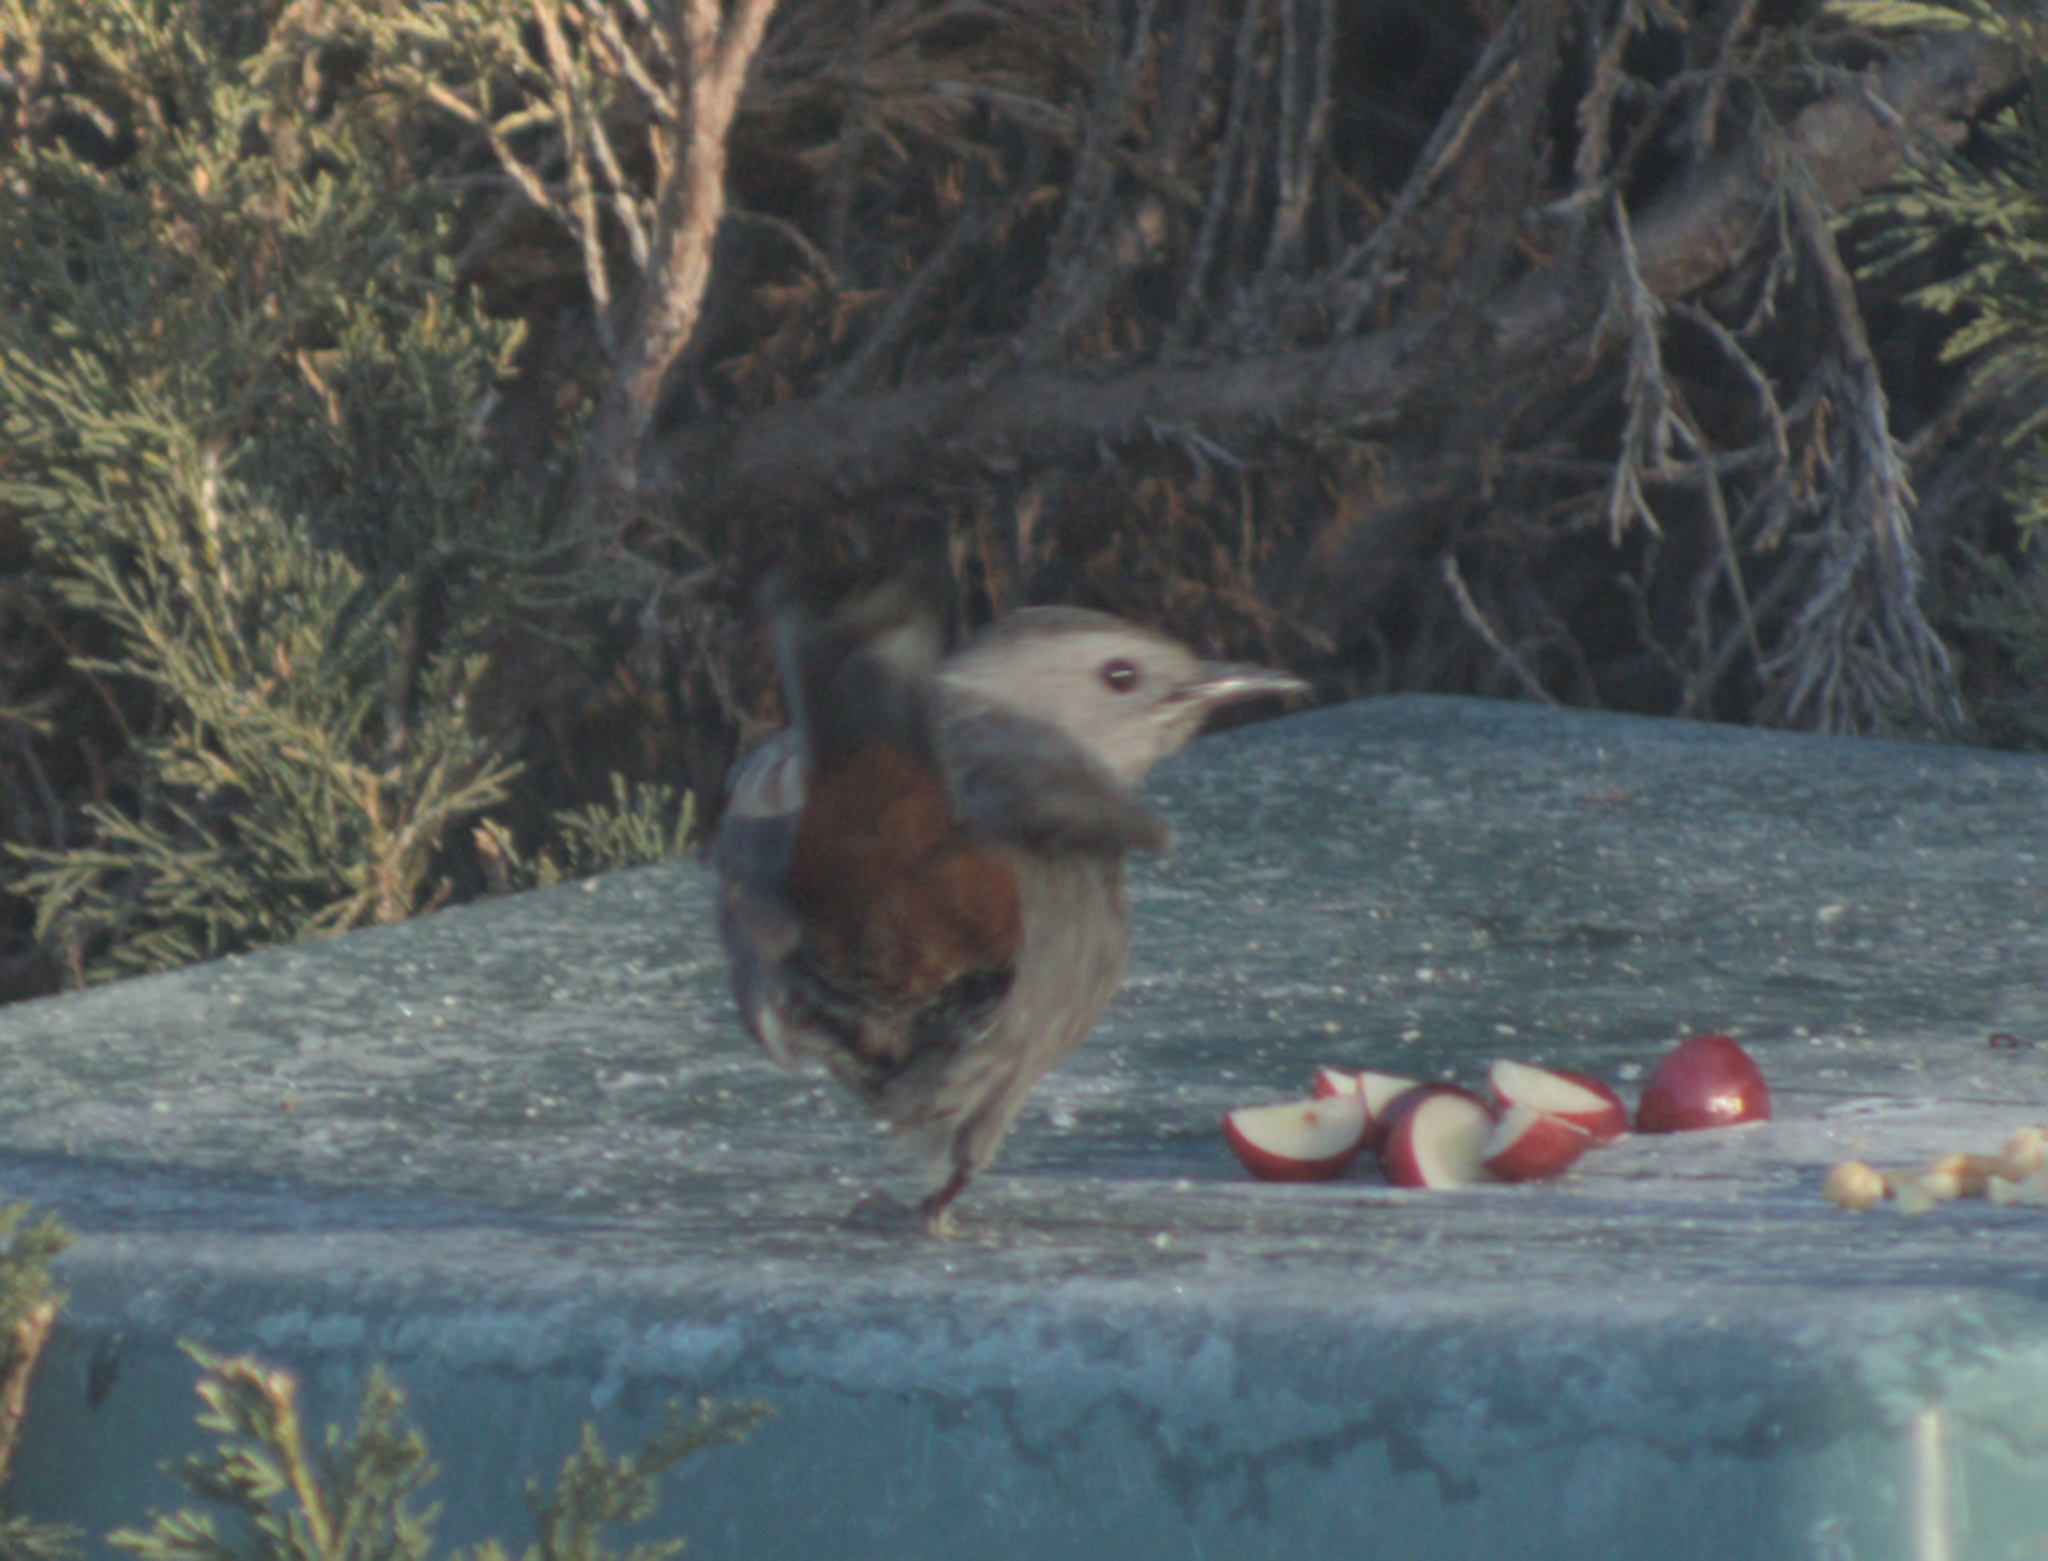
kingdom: Animalia
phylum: Chordata
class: Aves
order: Passeriformes
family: Mimidae
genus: Dumetella
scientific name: Dumetella carolinensis
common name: Gray catbird
